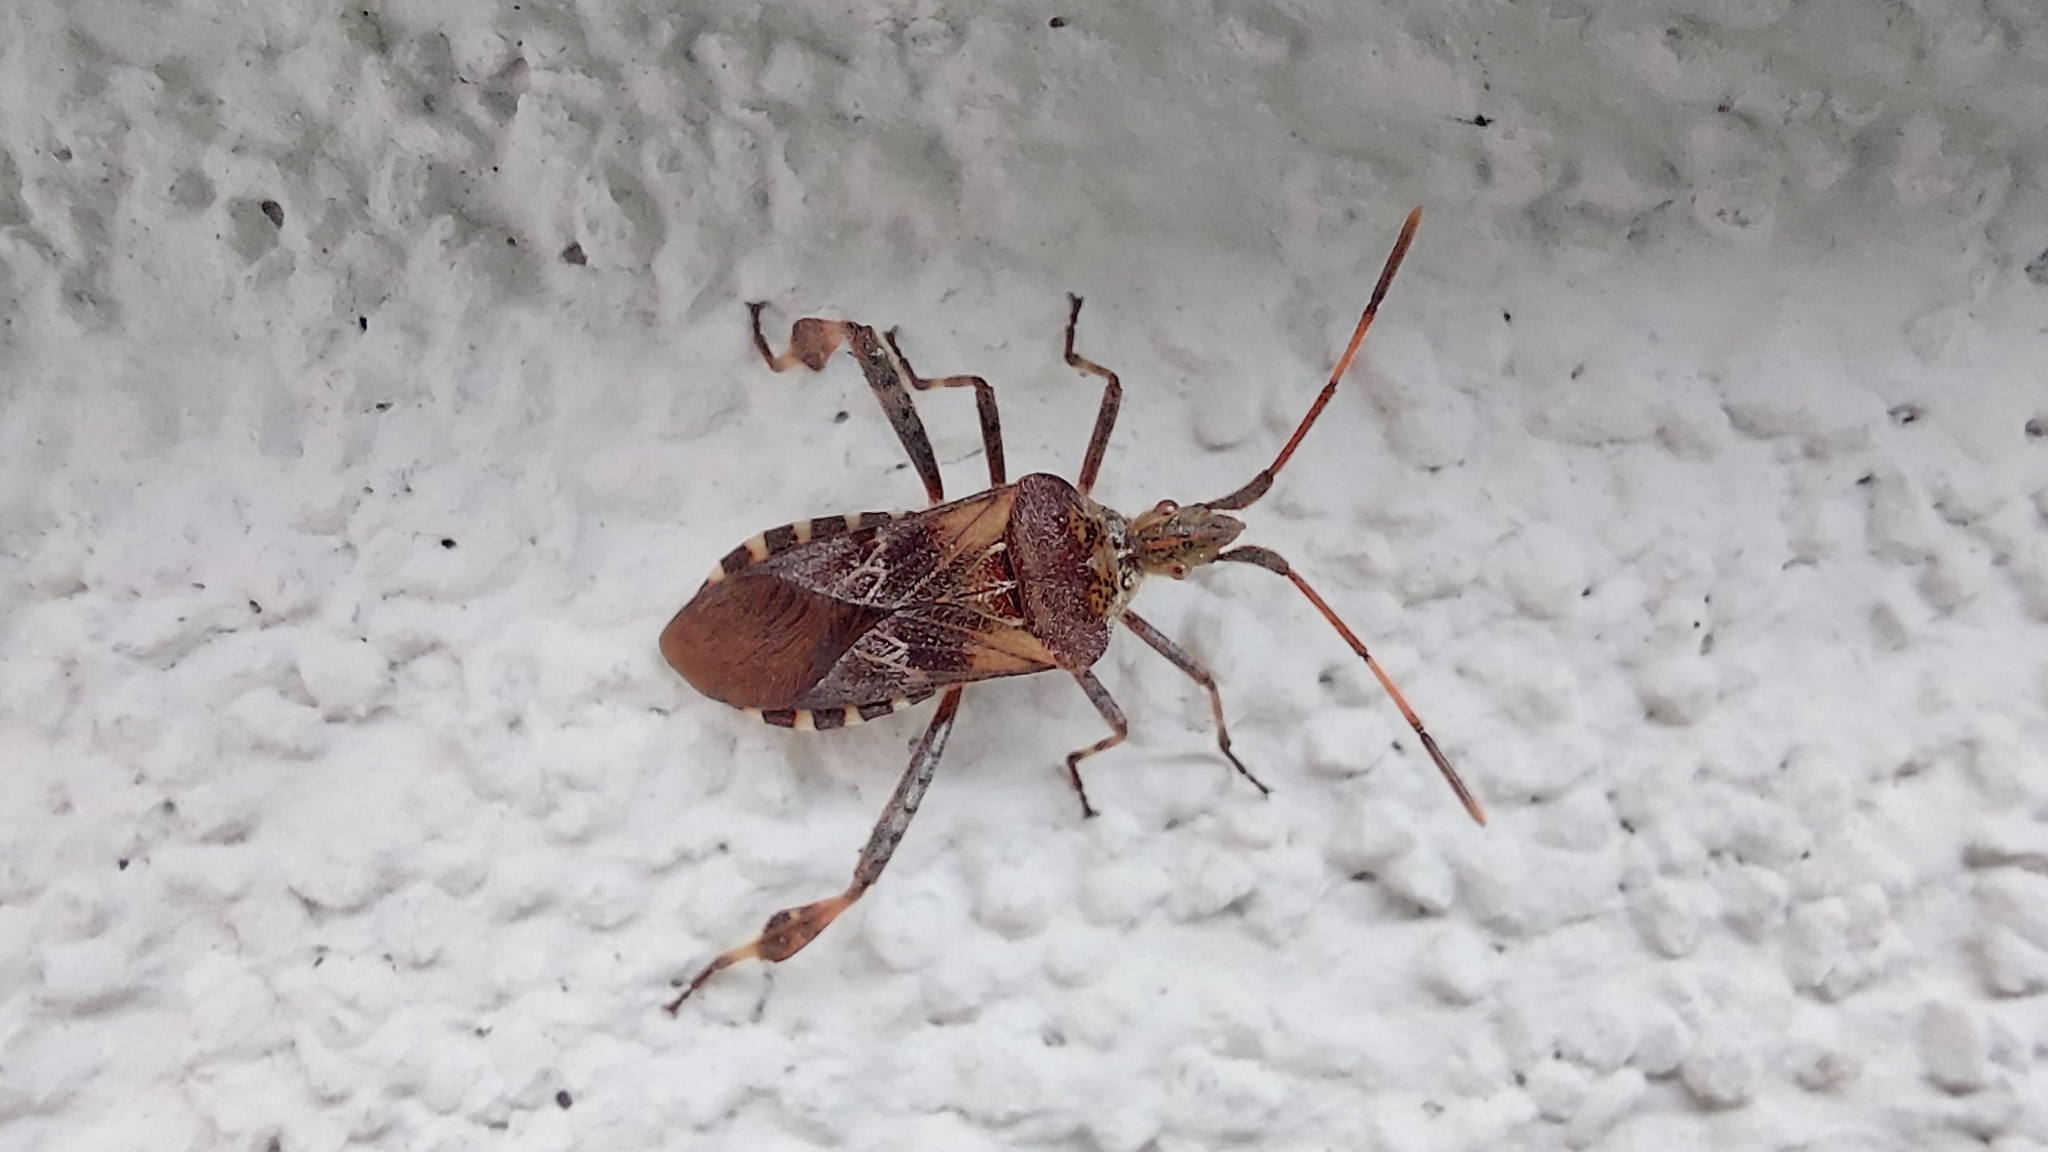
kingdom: Animalia
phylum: Arthropoda
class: Insecta
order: Hemiptera
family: Coreidae
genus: Leptoglossus
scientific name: Leptoglossus occidentalis
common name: Western conifer-seed bug
